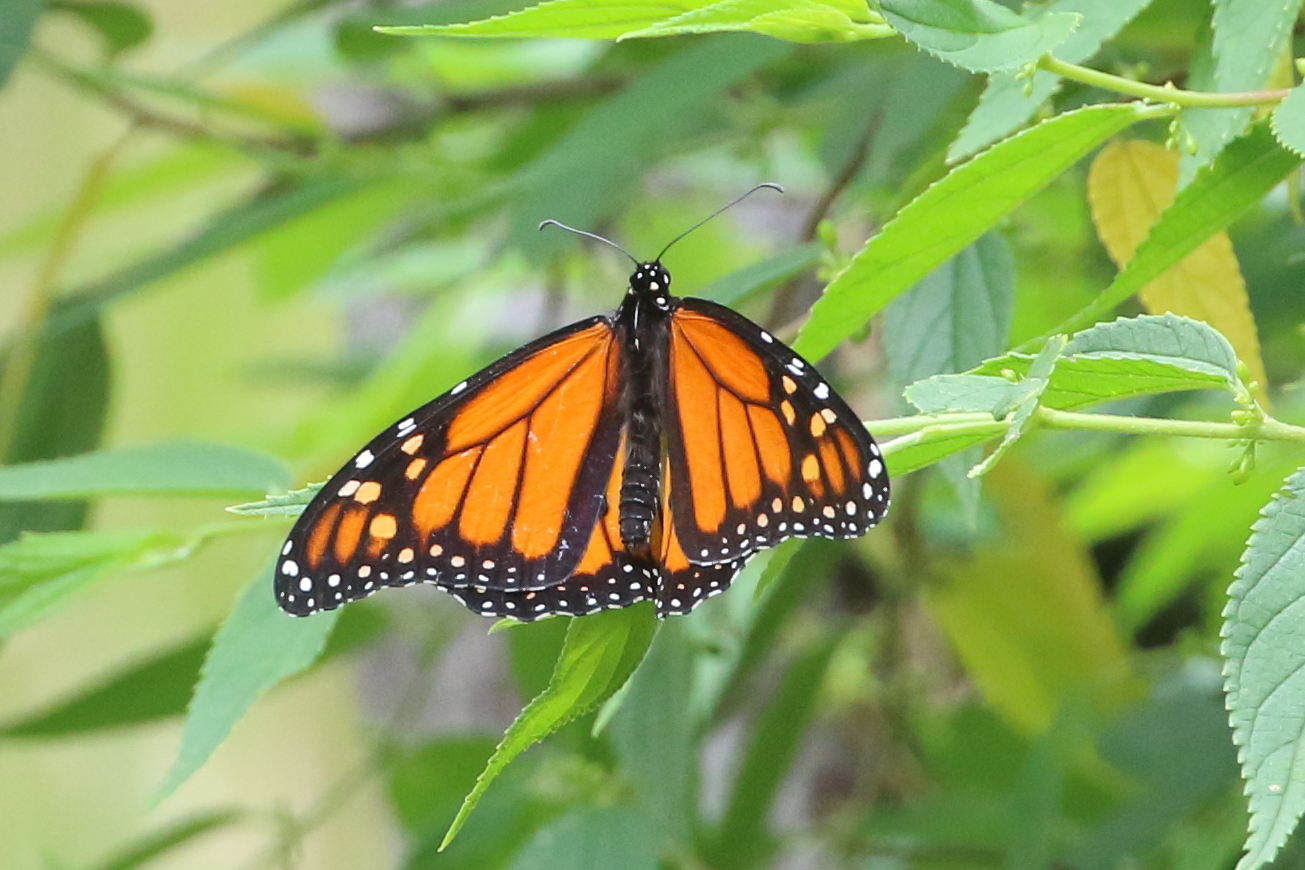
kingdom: Animalia
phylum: Arthropoda
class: Insecta
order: Lepidoptera
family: Nymphalidae
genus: Danaus
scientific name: Danaus plexippus
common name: Monarch
